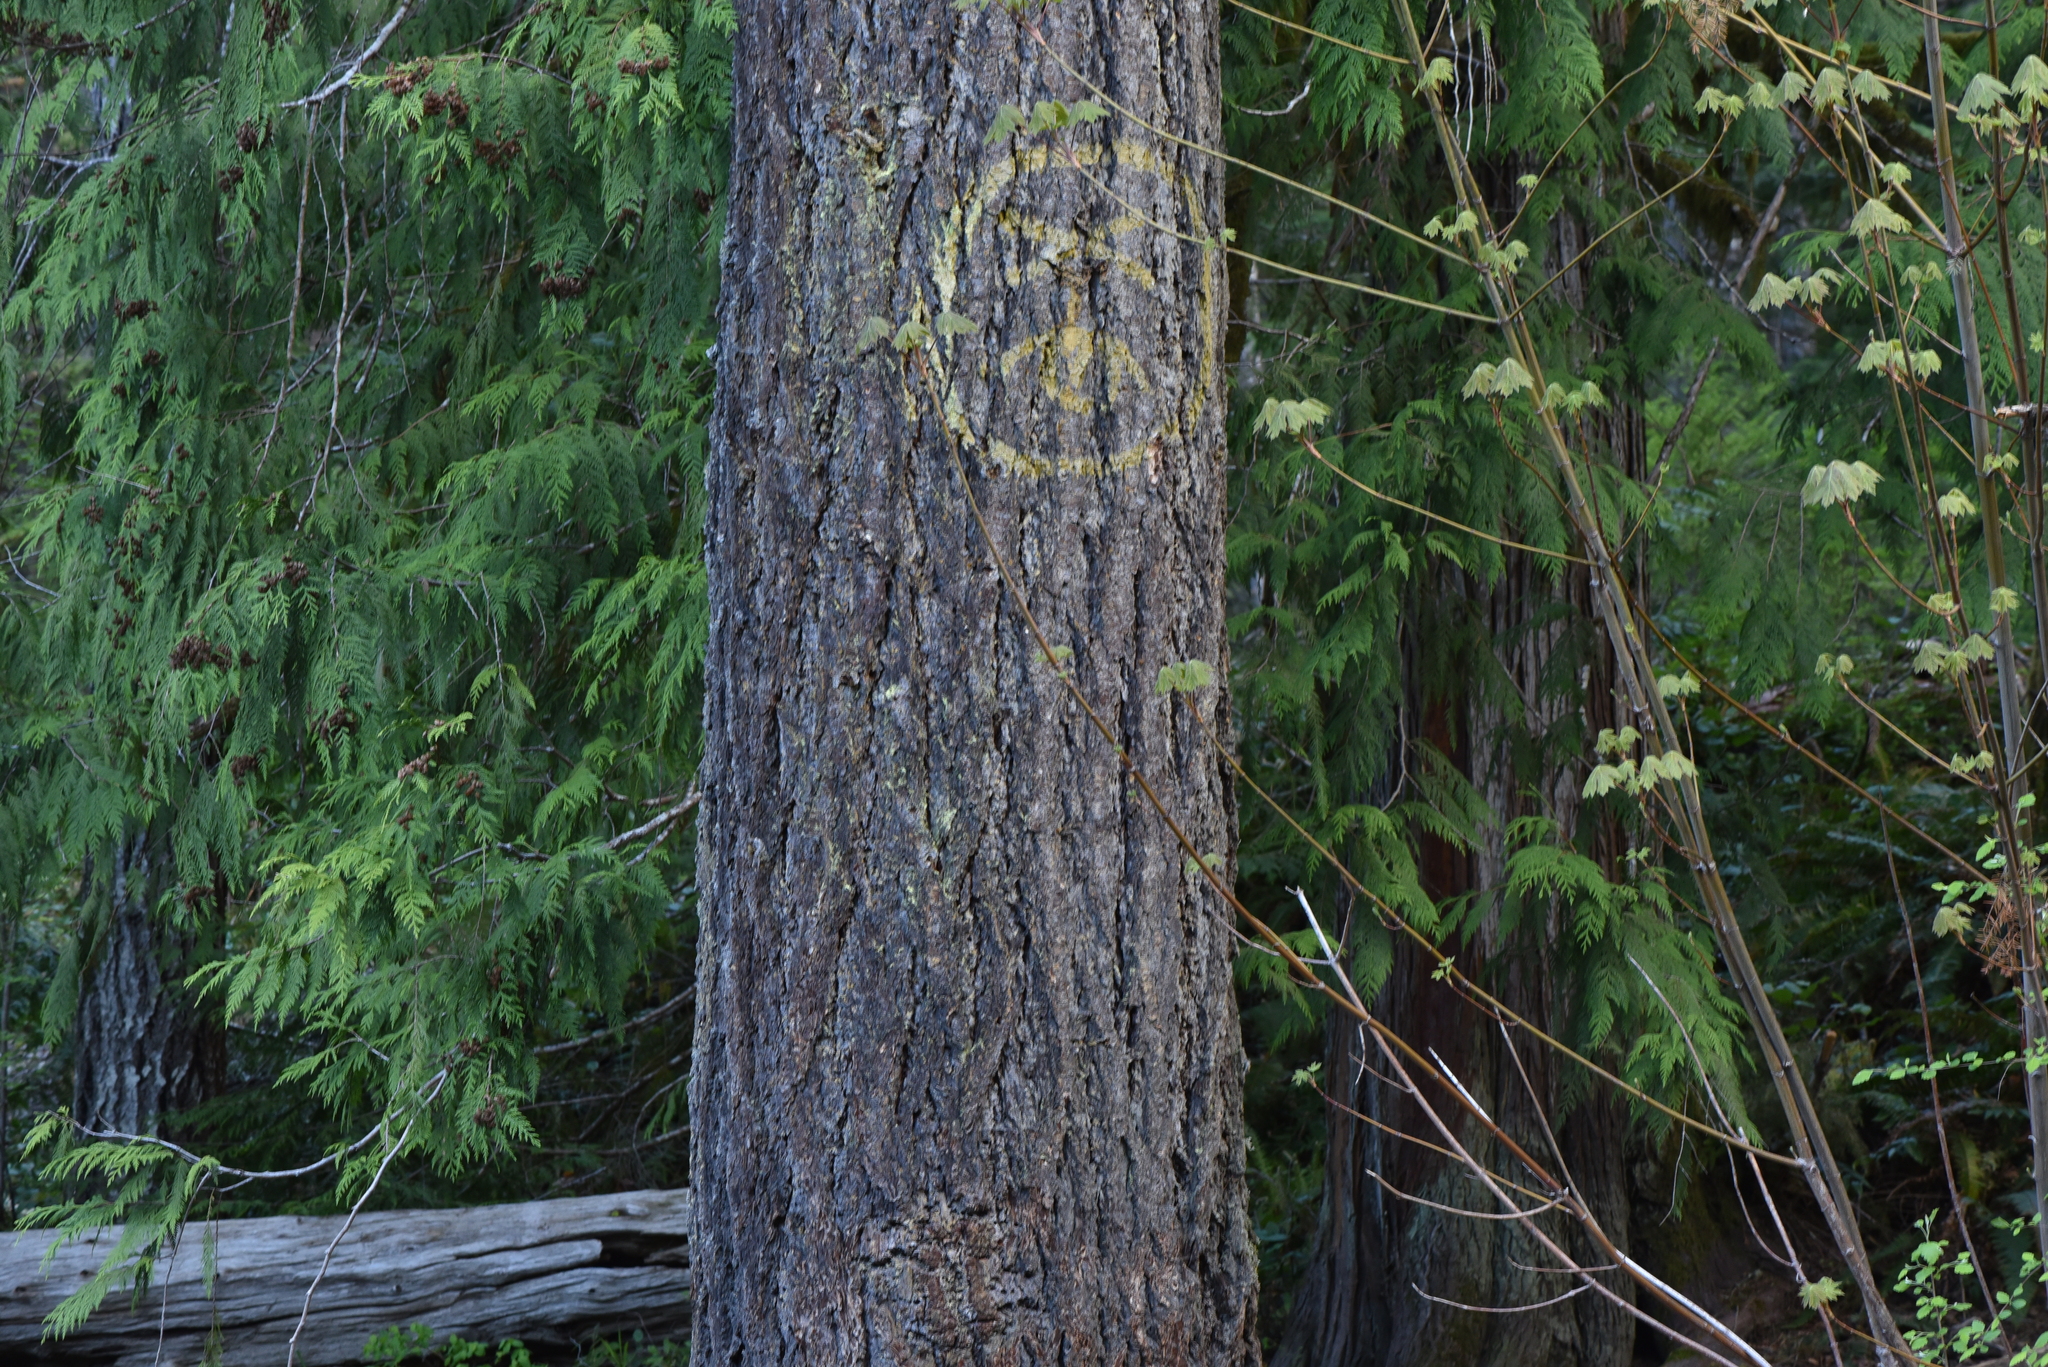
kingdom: Plantae
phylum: Tracheophyta
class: Pinopsida
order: Pinales
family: Pinaceae
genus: Pseudotsuga
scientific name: Pseudotsuga menziesii
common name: Douglas fir
